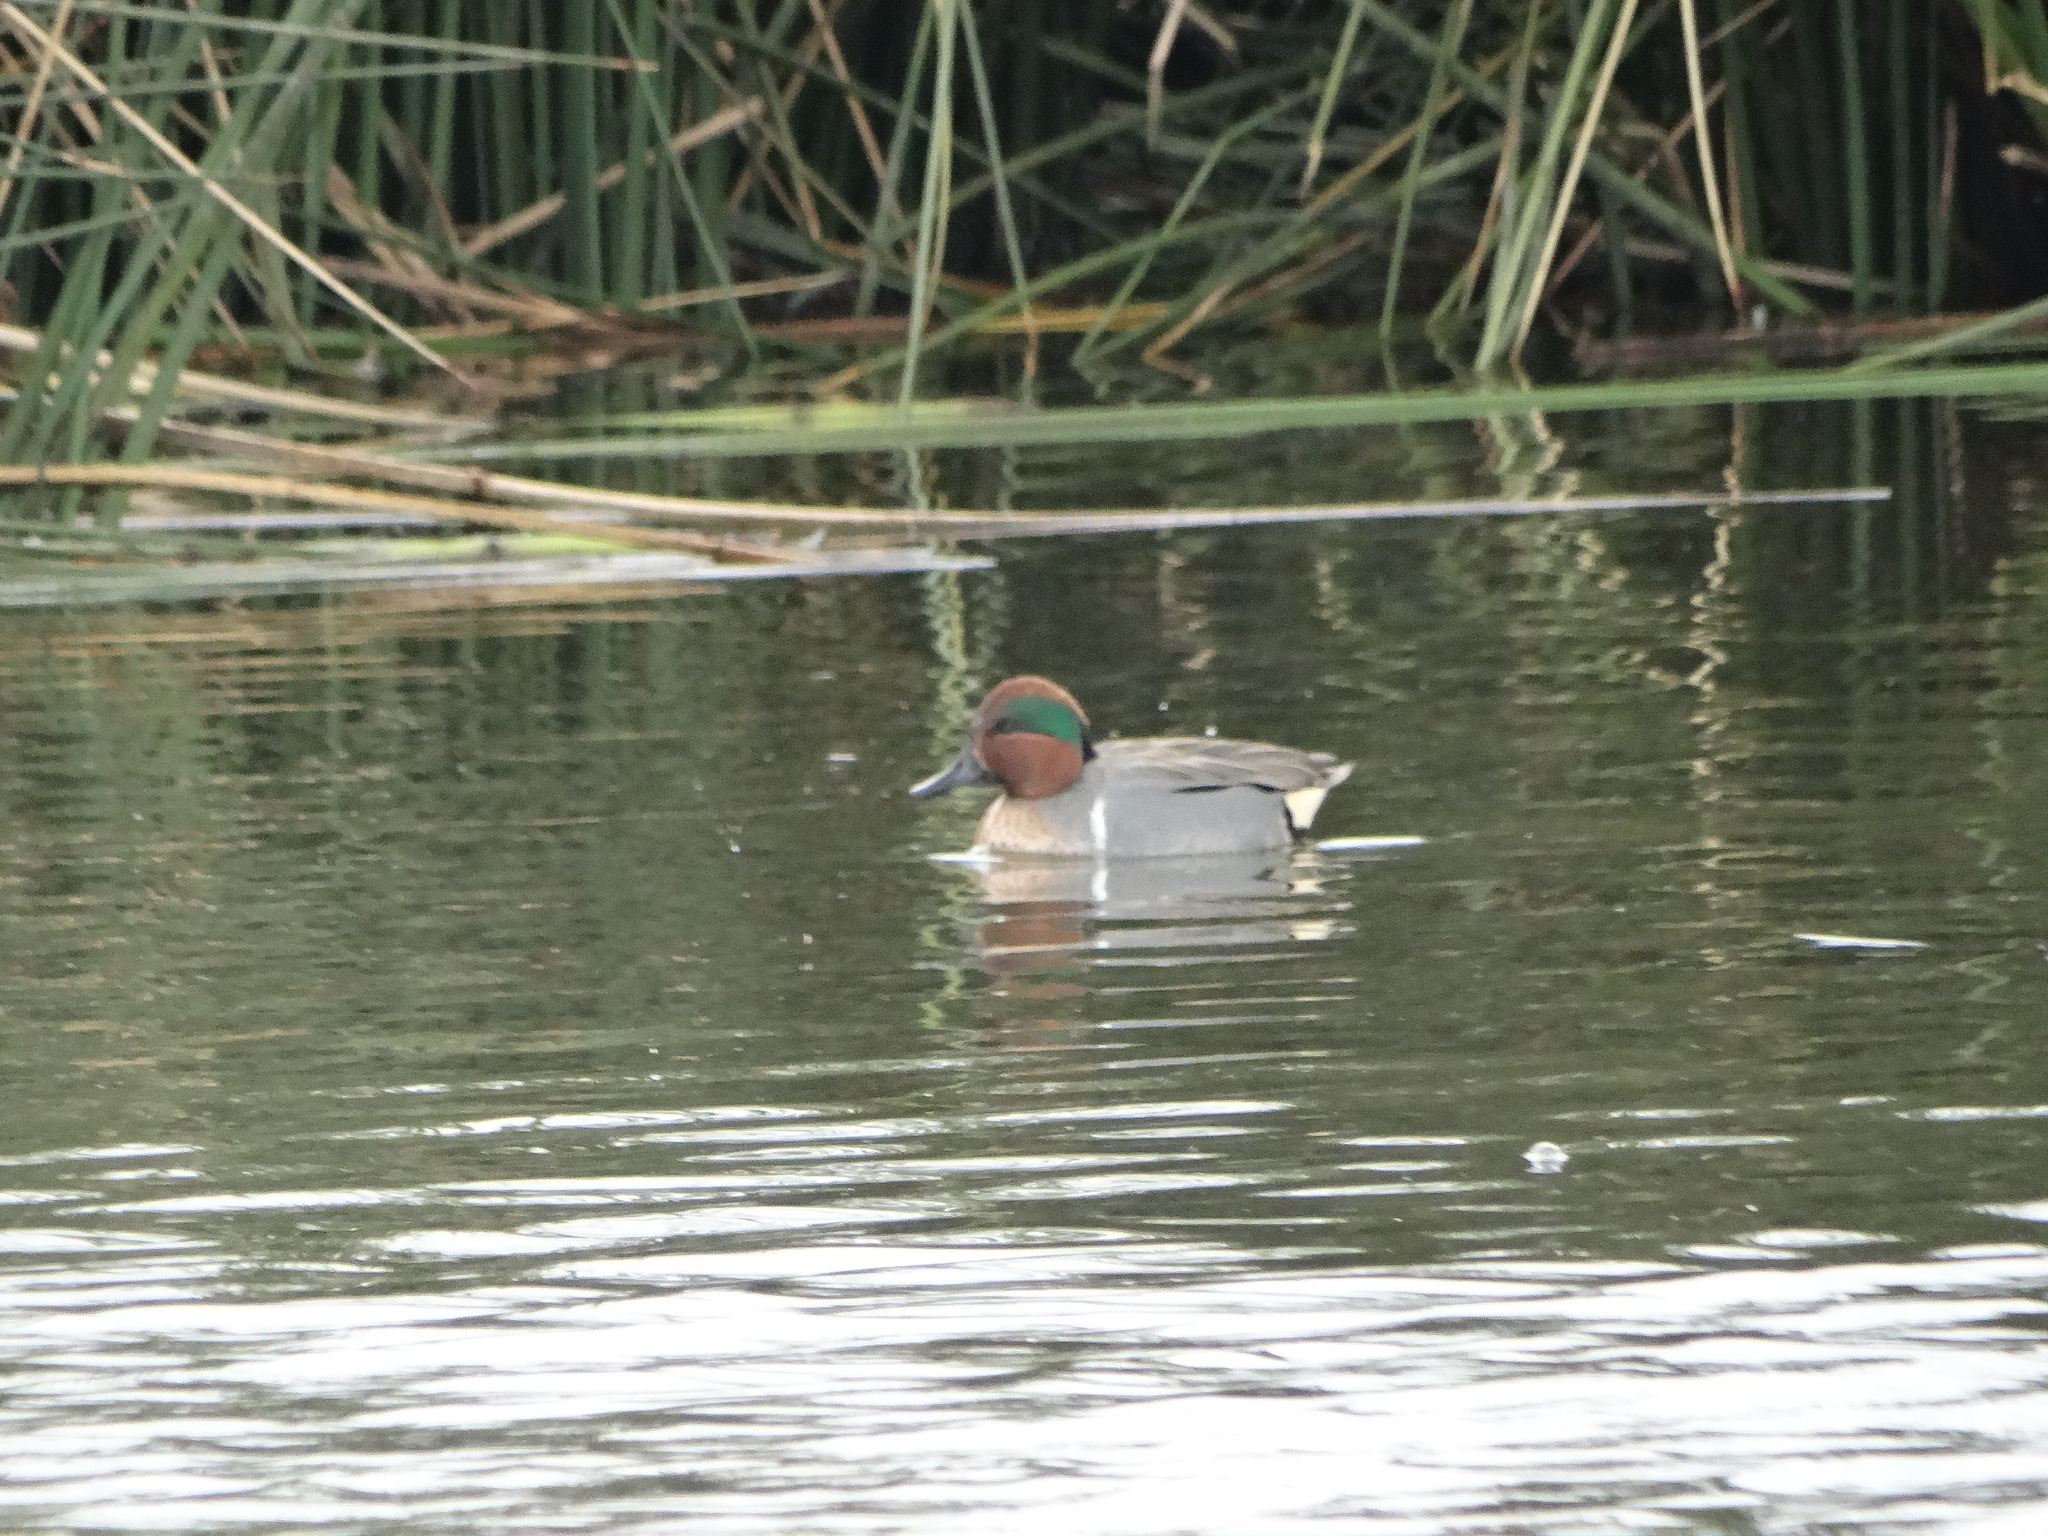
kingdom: Animalia
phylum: Chordata
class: Aves
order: Anseriformes
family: Anatidae
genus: Anas
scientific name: Anas crecca
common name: Eurasian teal
